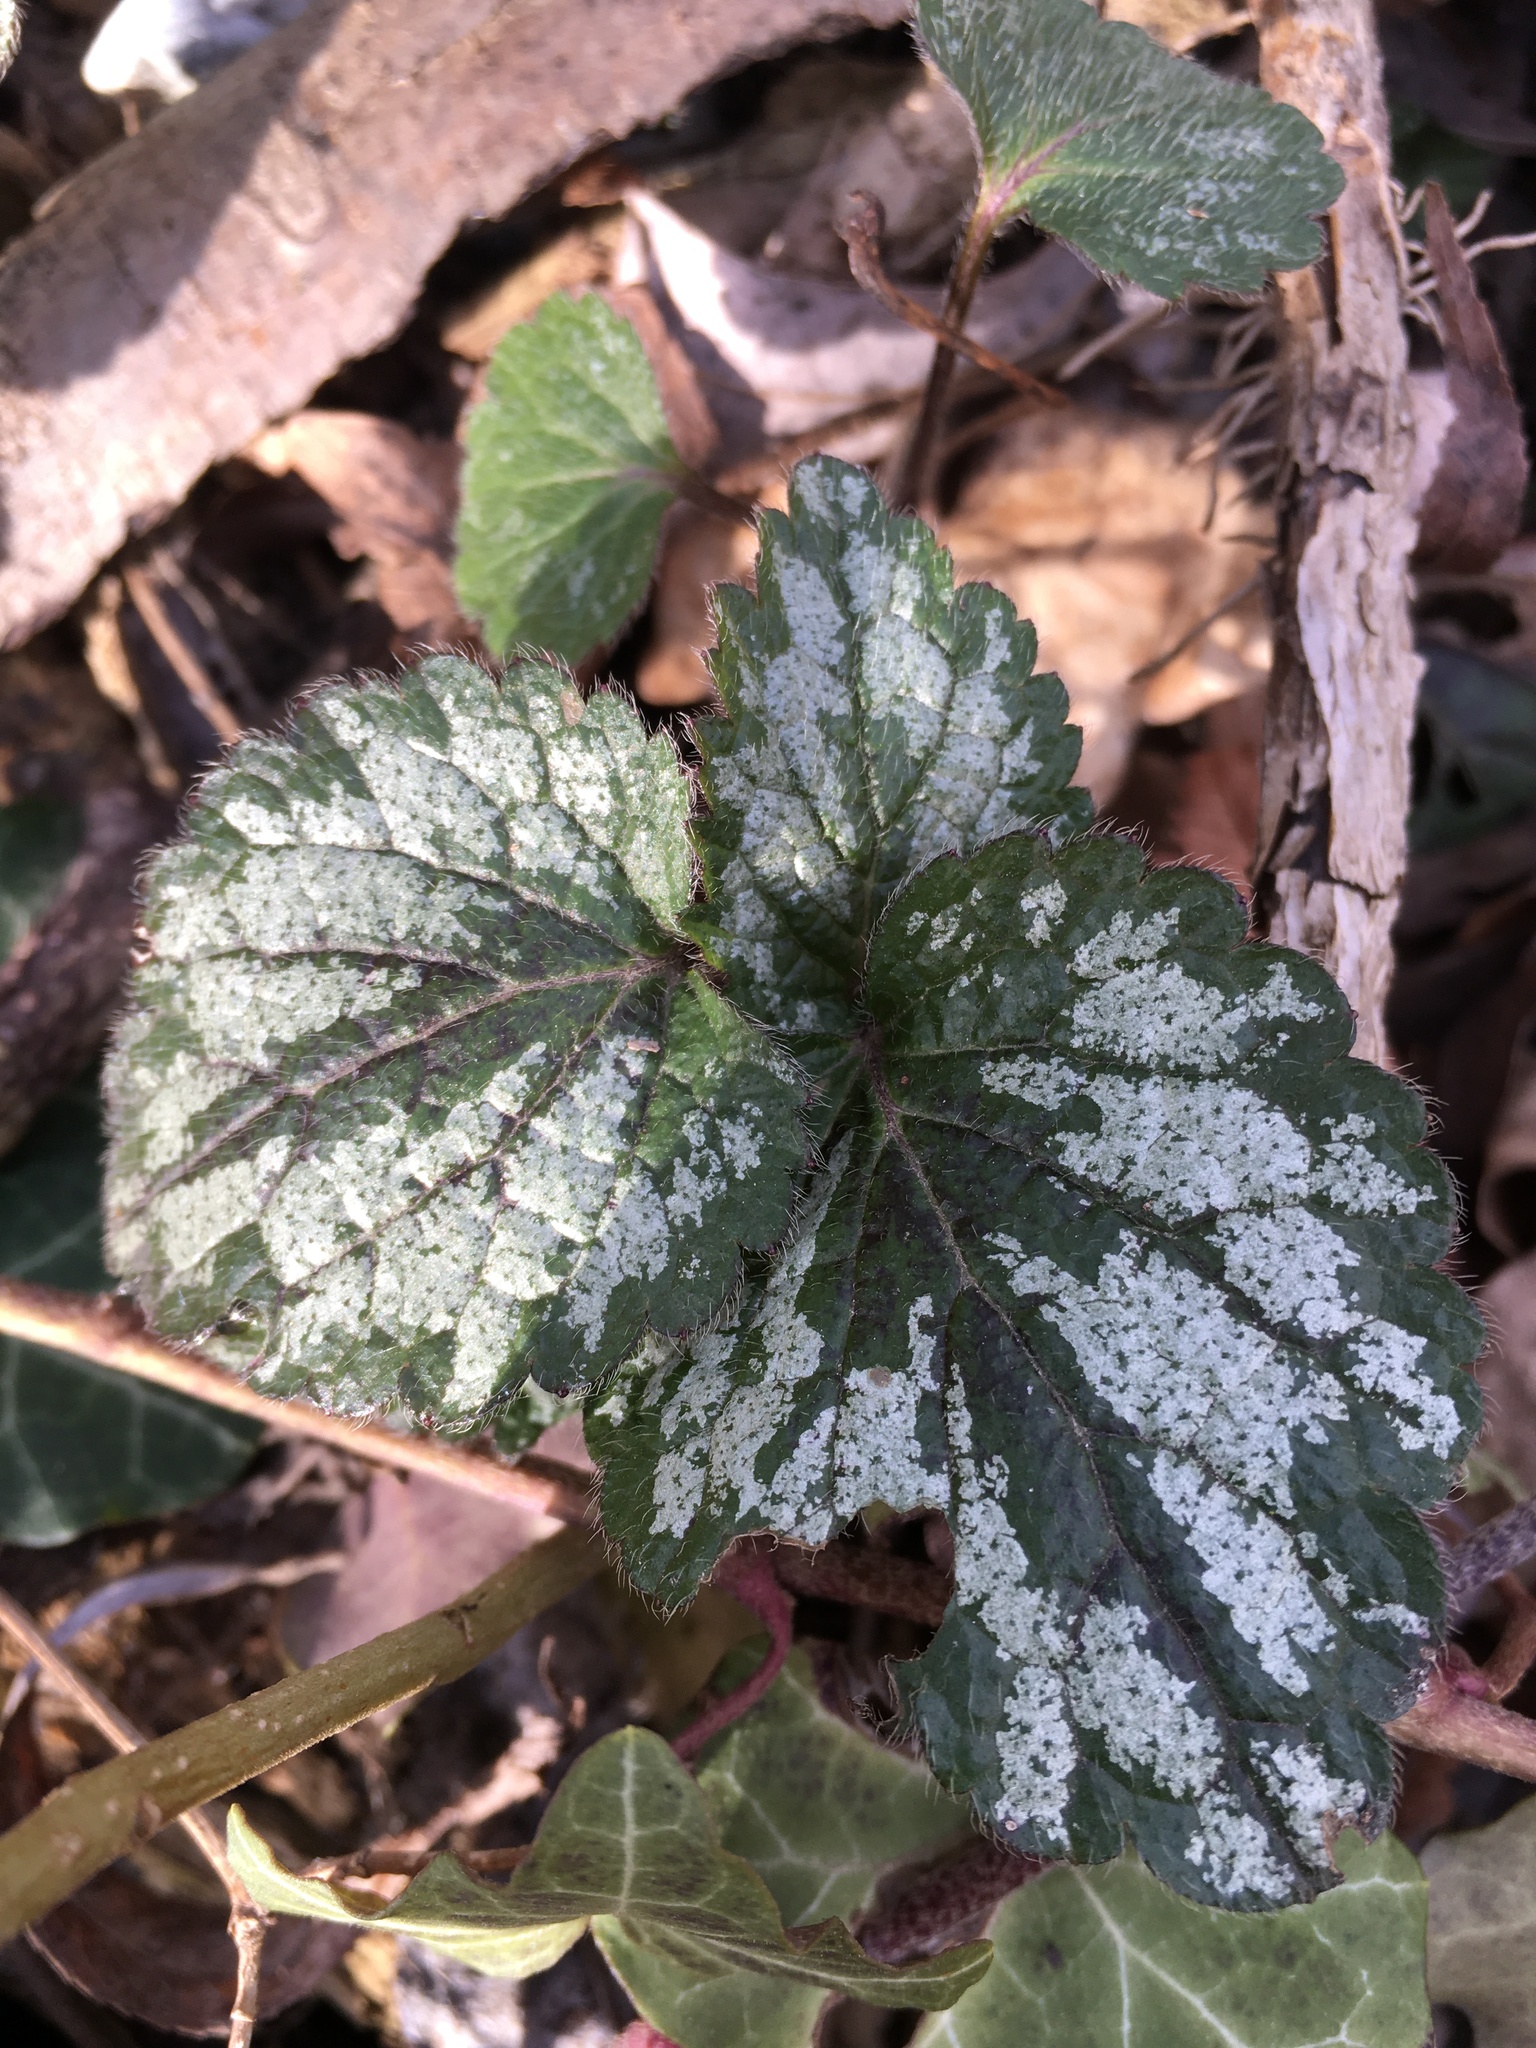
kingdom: Plantae
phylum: Tracheophyta
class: Magnoliopsida
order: Lamiales
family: Lamiaceae
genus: Lamium
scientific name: Lamium galeobdolon
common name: Yellow archangel
